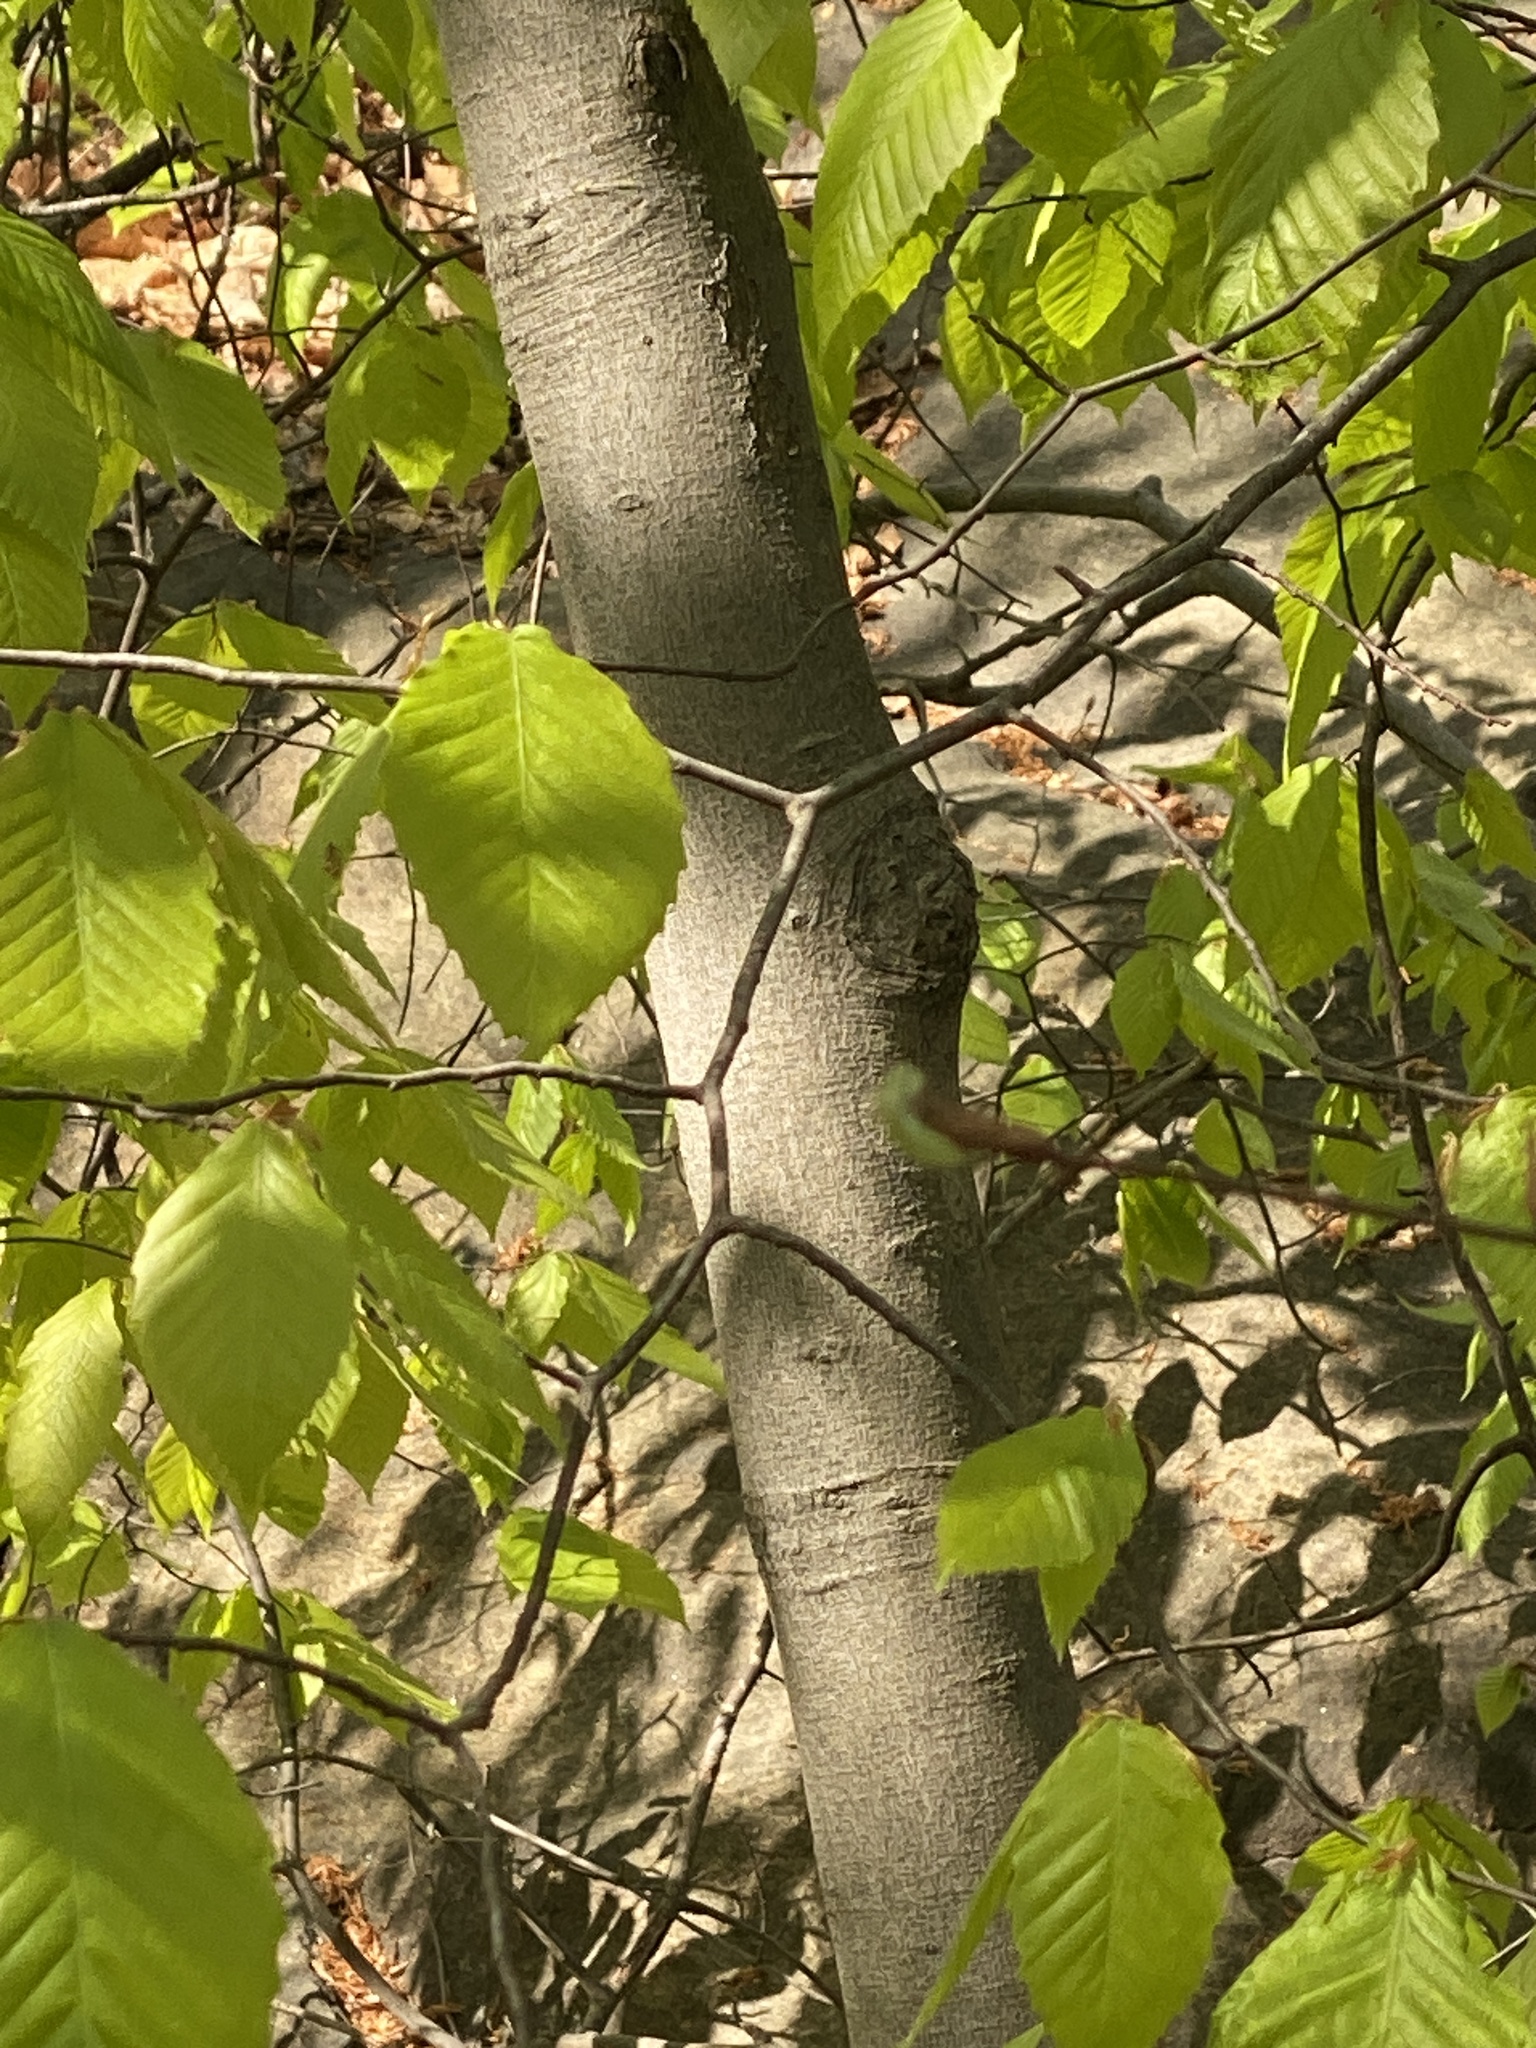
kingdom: Plantae
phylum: Tracheophyta
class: Magnoliopsida
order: Fagales
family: Fagaceae
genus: Fagus
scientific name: Fagus grandifolia
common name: American beech
